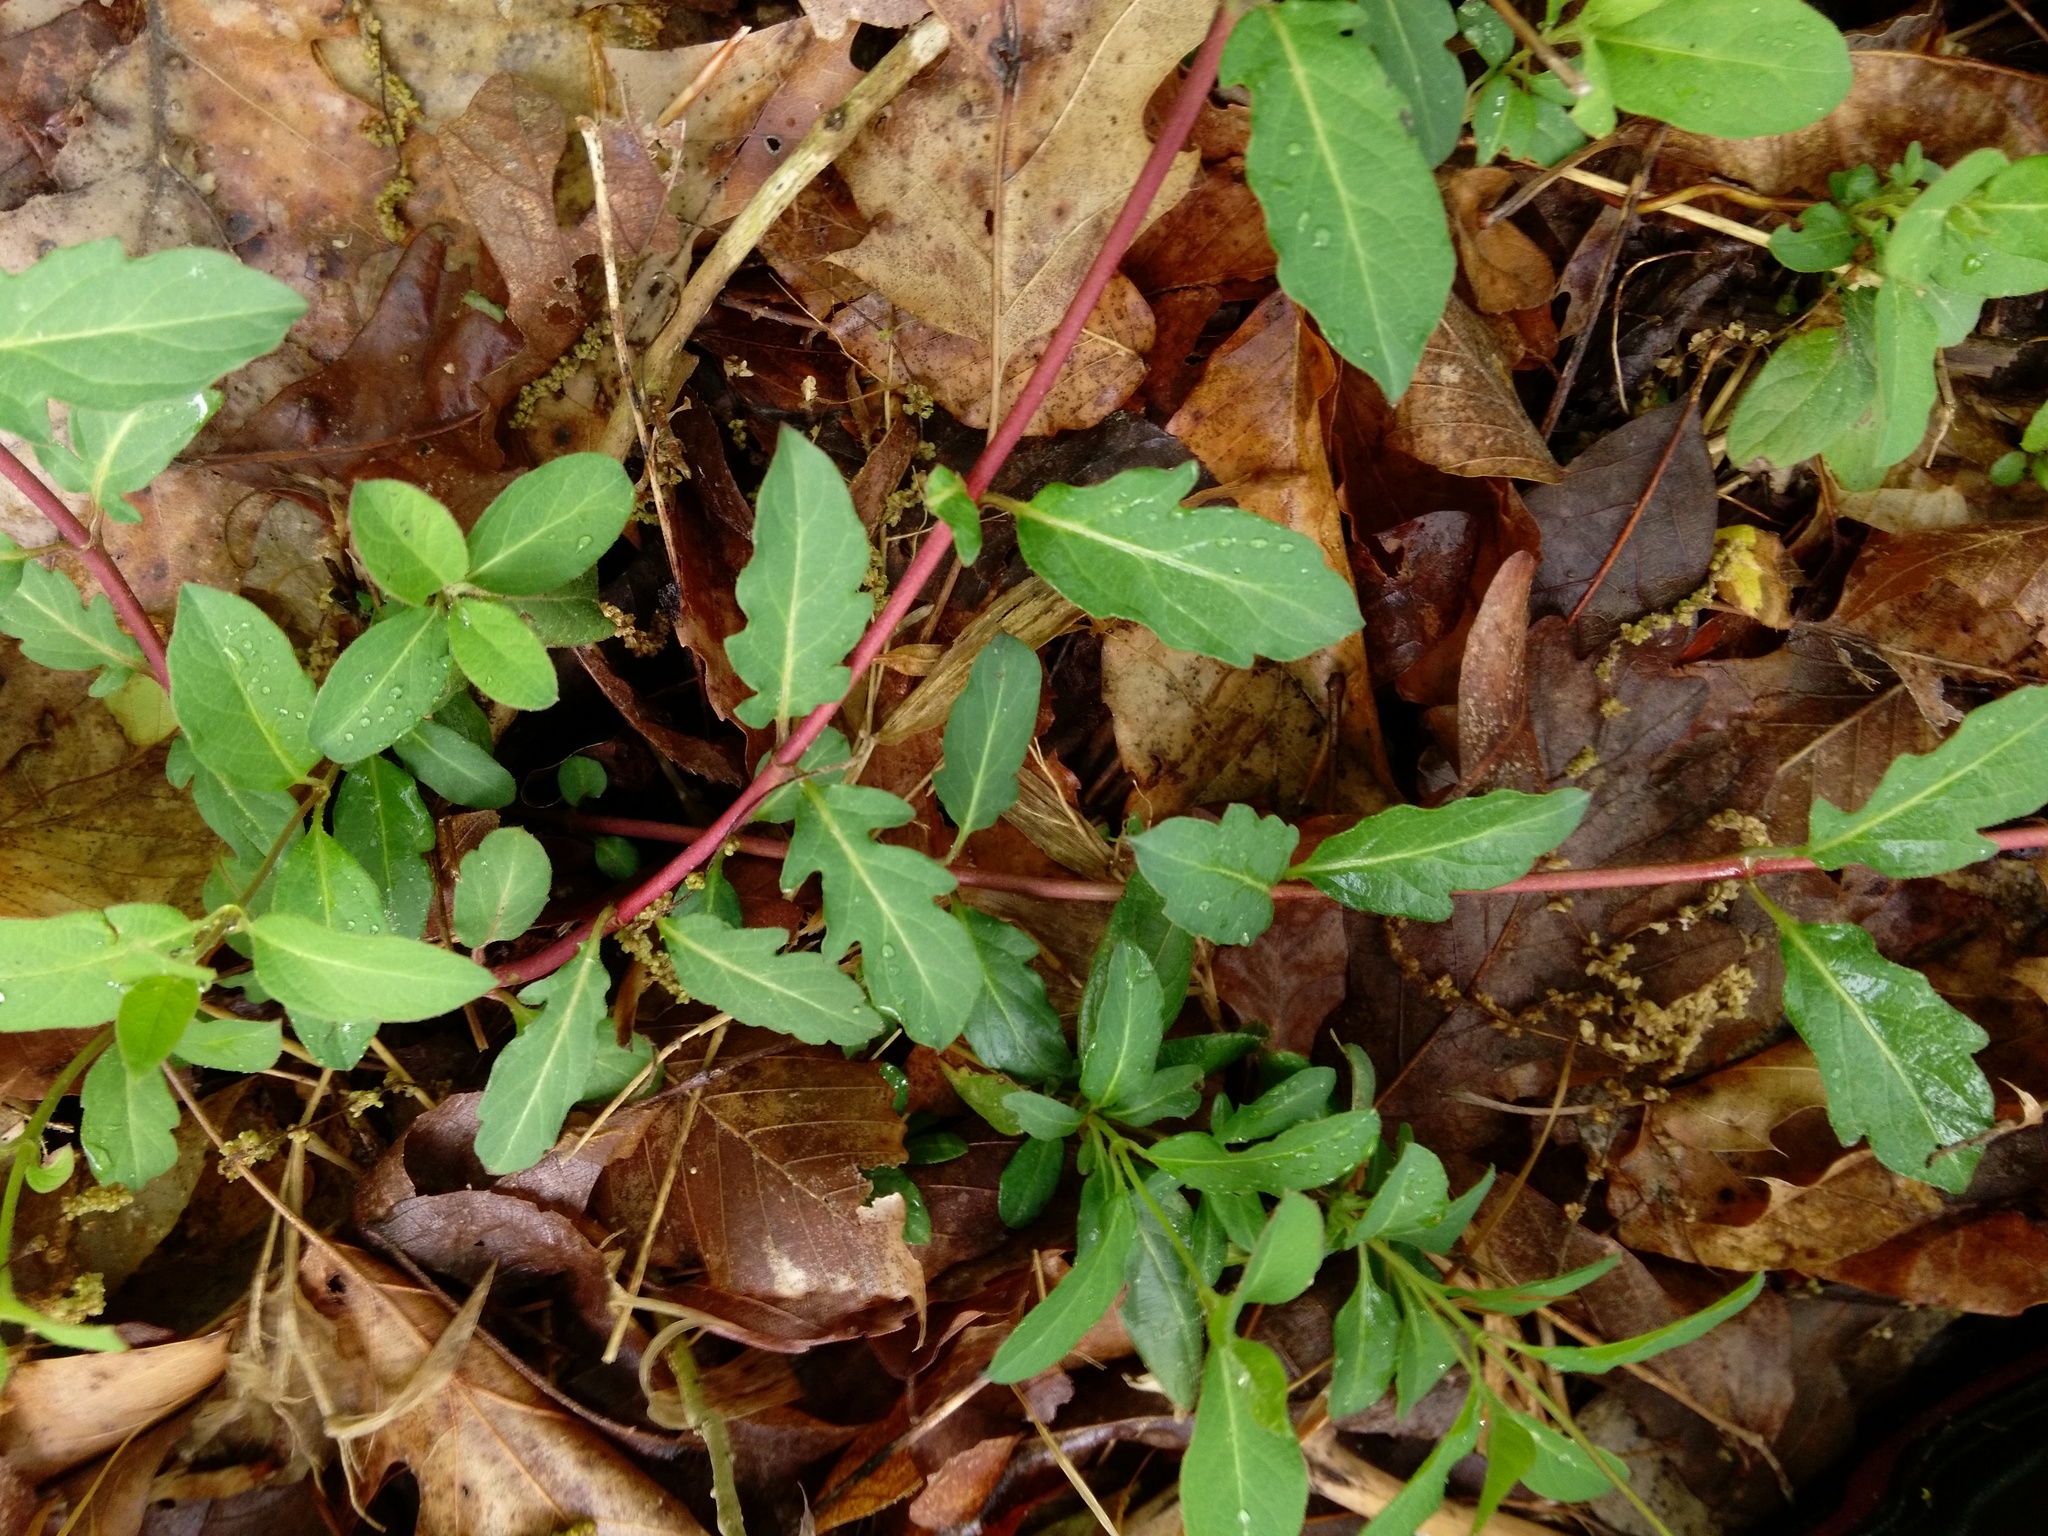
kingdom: Plantae
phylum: Tracheophyta
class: Magnoliopsida
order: Dipsacales
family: Caprifoliaceae
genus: Lonicera
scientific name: Lonicera japonica
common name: Japanese honeysuckle
